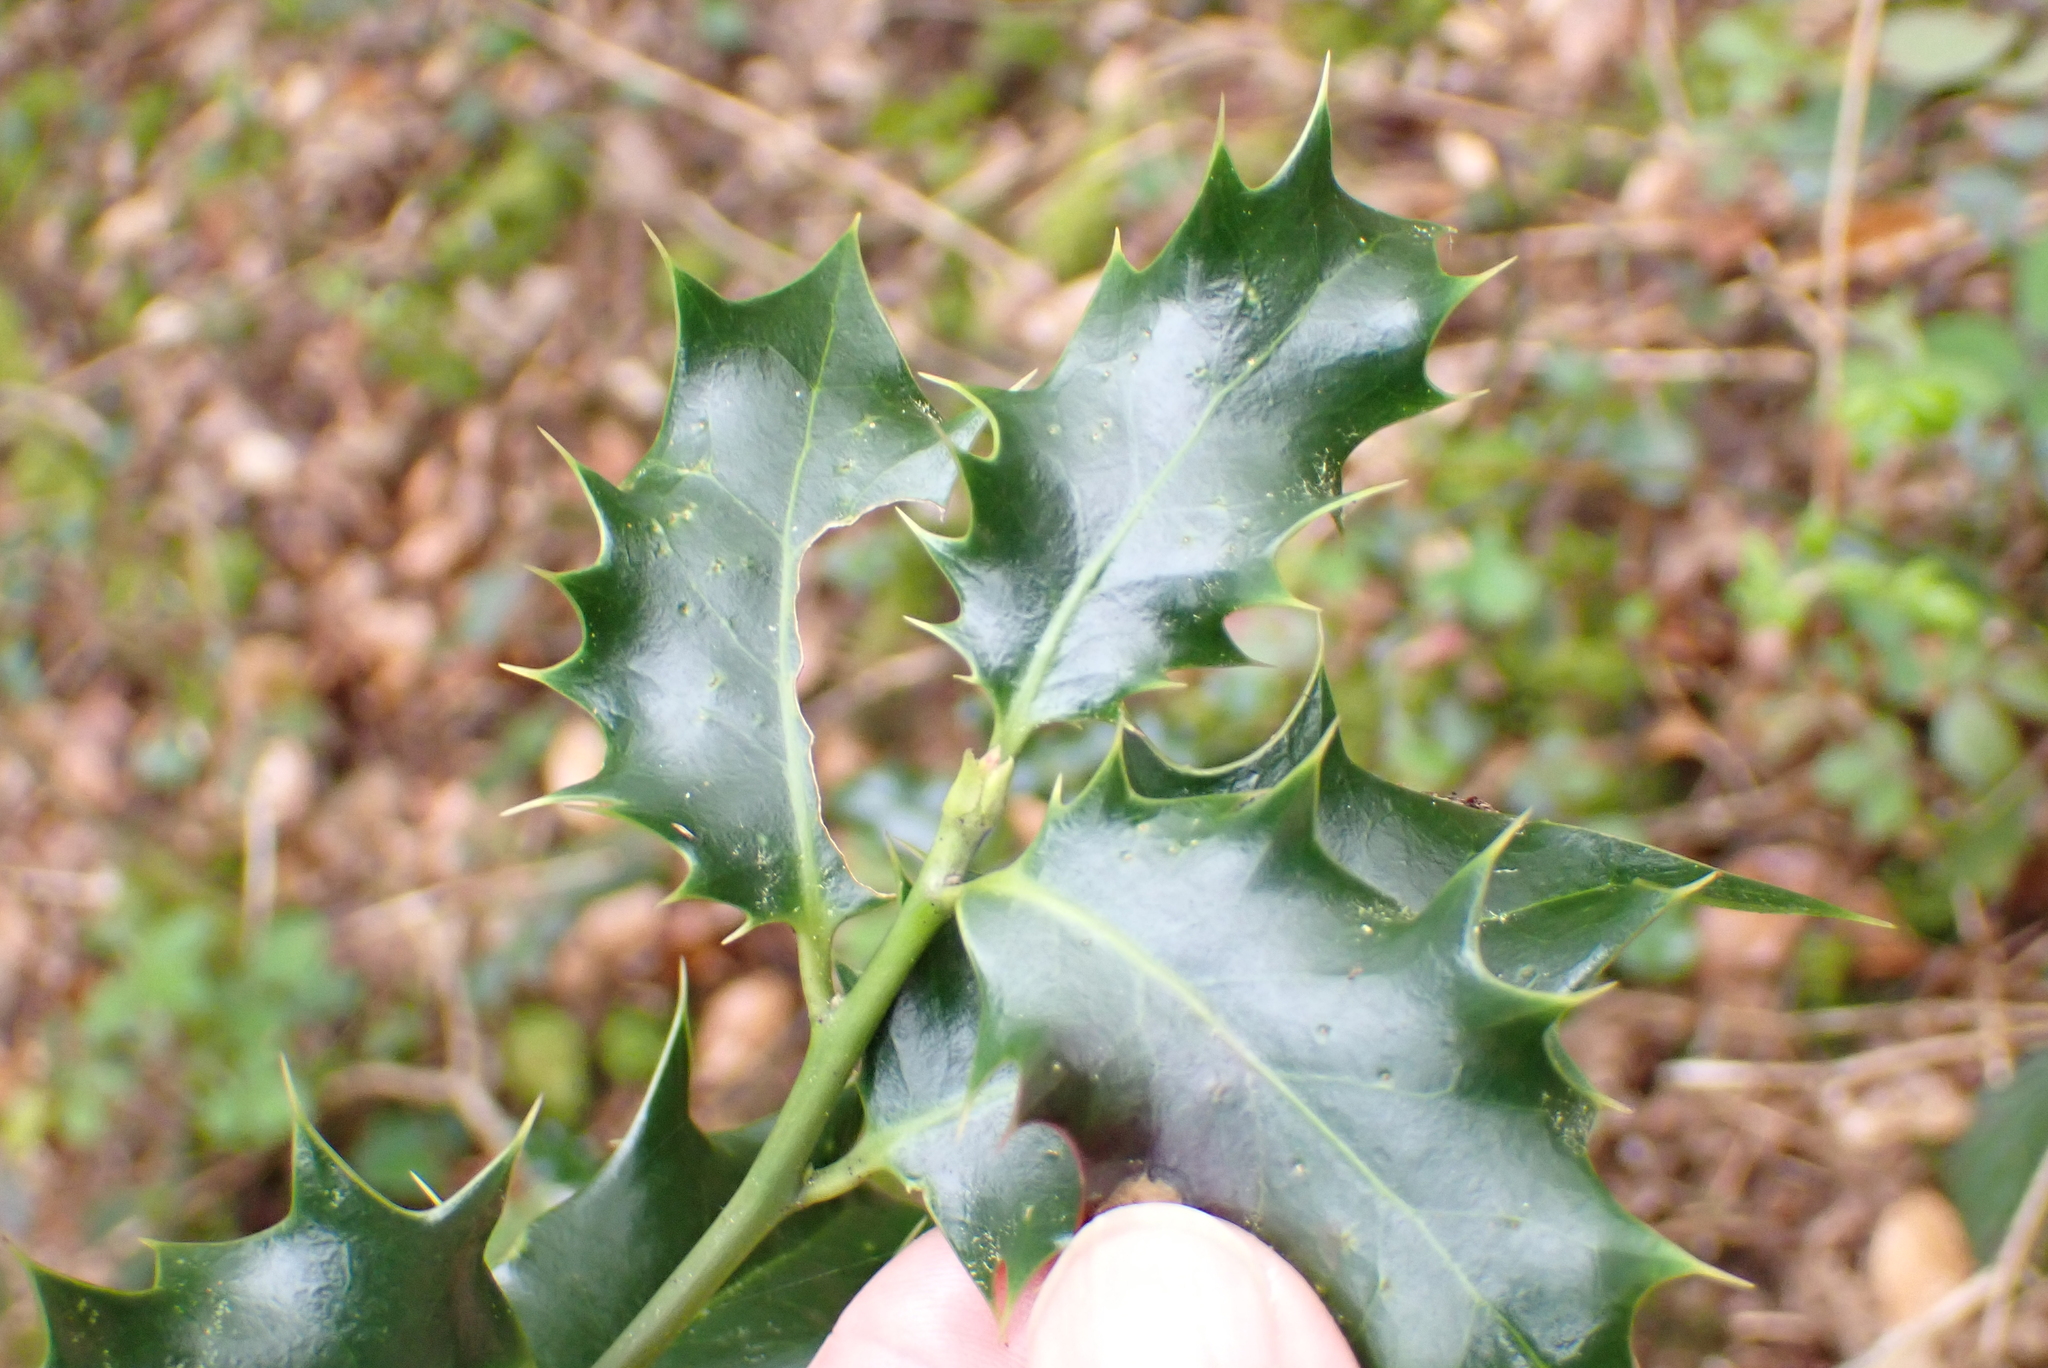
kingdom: Plantae
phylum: Tracheophyta
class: Magnoliopsida
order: Aquifoliales
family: Aquifoliaceae
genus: Ilex
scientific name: Ilex aquifolium
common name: English holly
